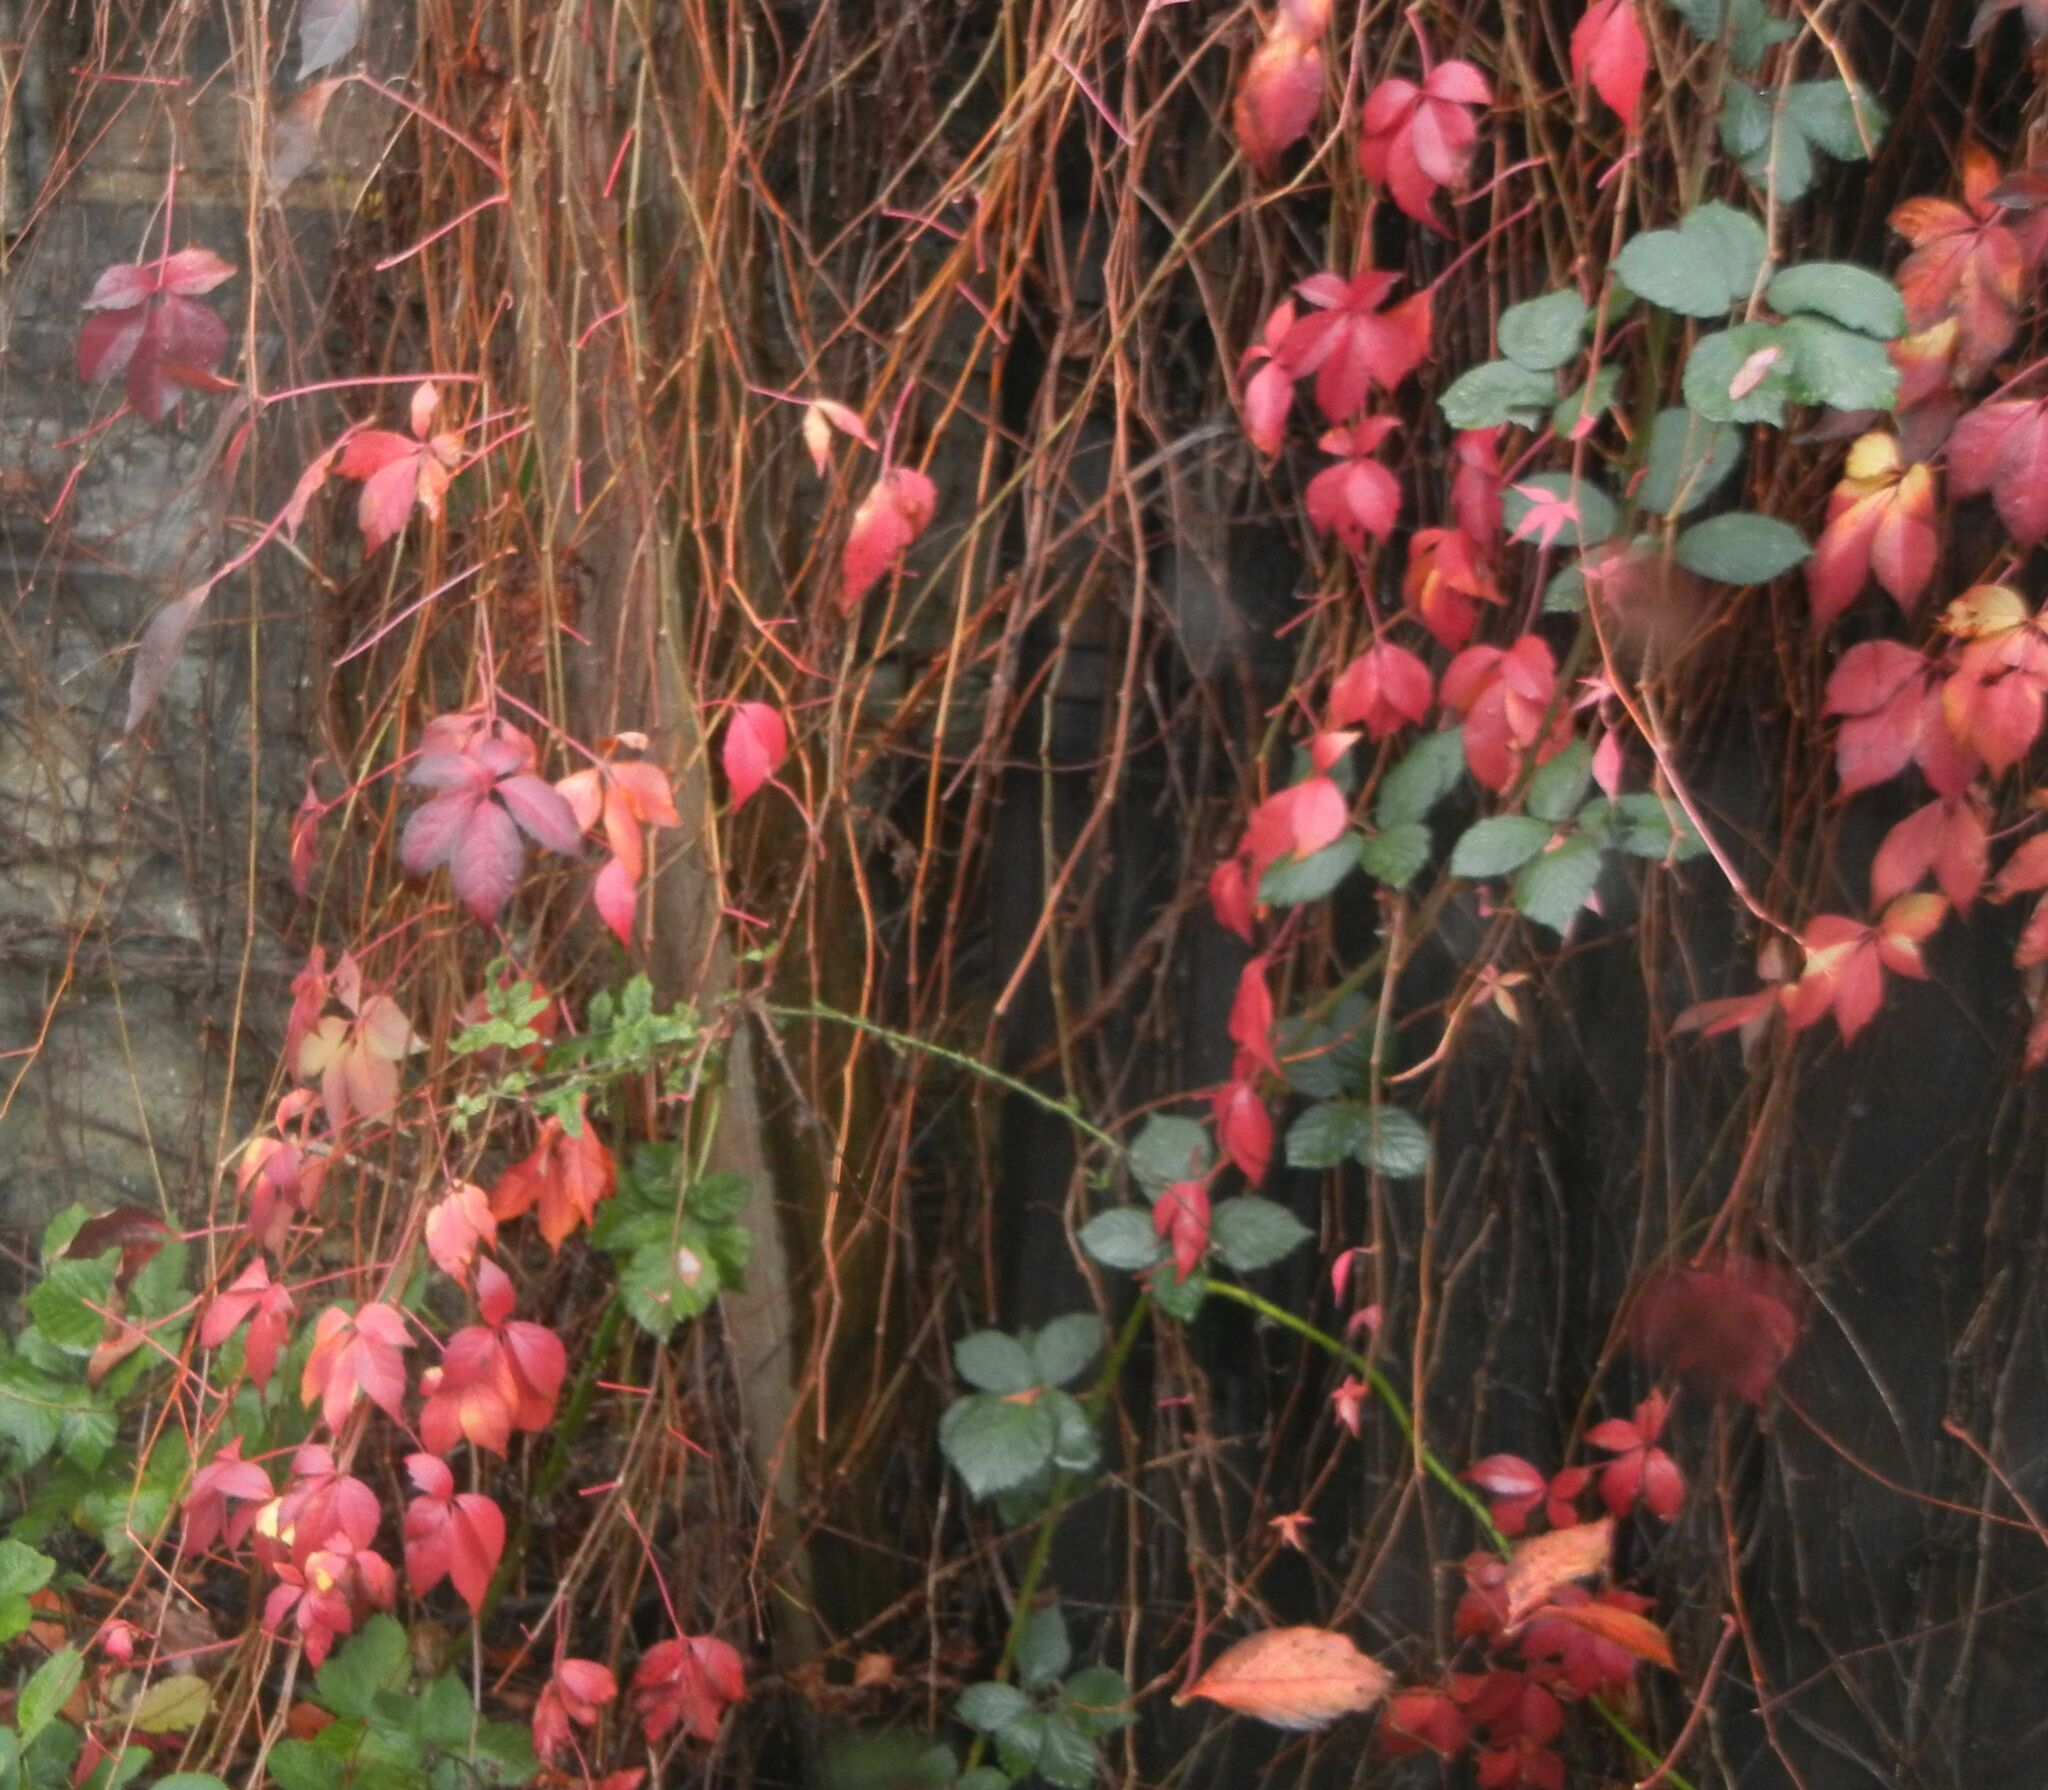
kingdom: Plantae
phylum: Tracheophyta
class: Magnoliopsida
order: Vitales
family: Vitaceae
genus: Parthenocissus
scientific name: Parthenocissus quinquefolia
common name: Virginia-creeper
